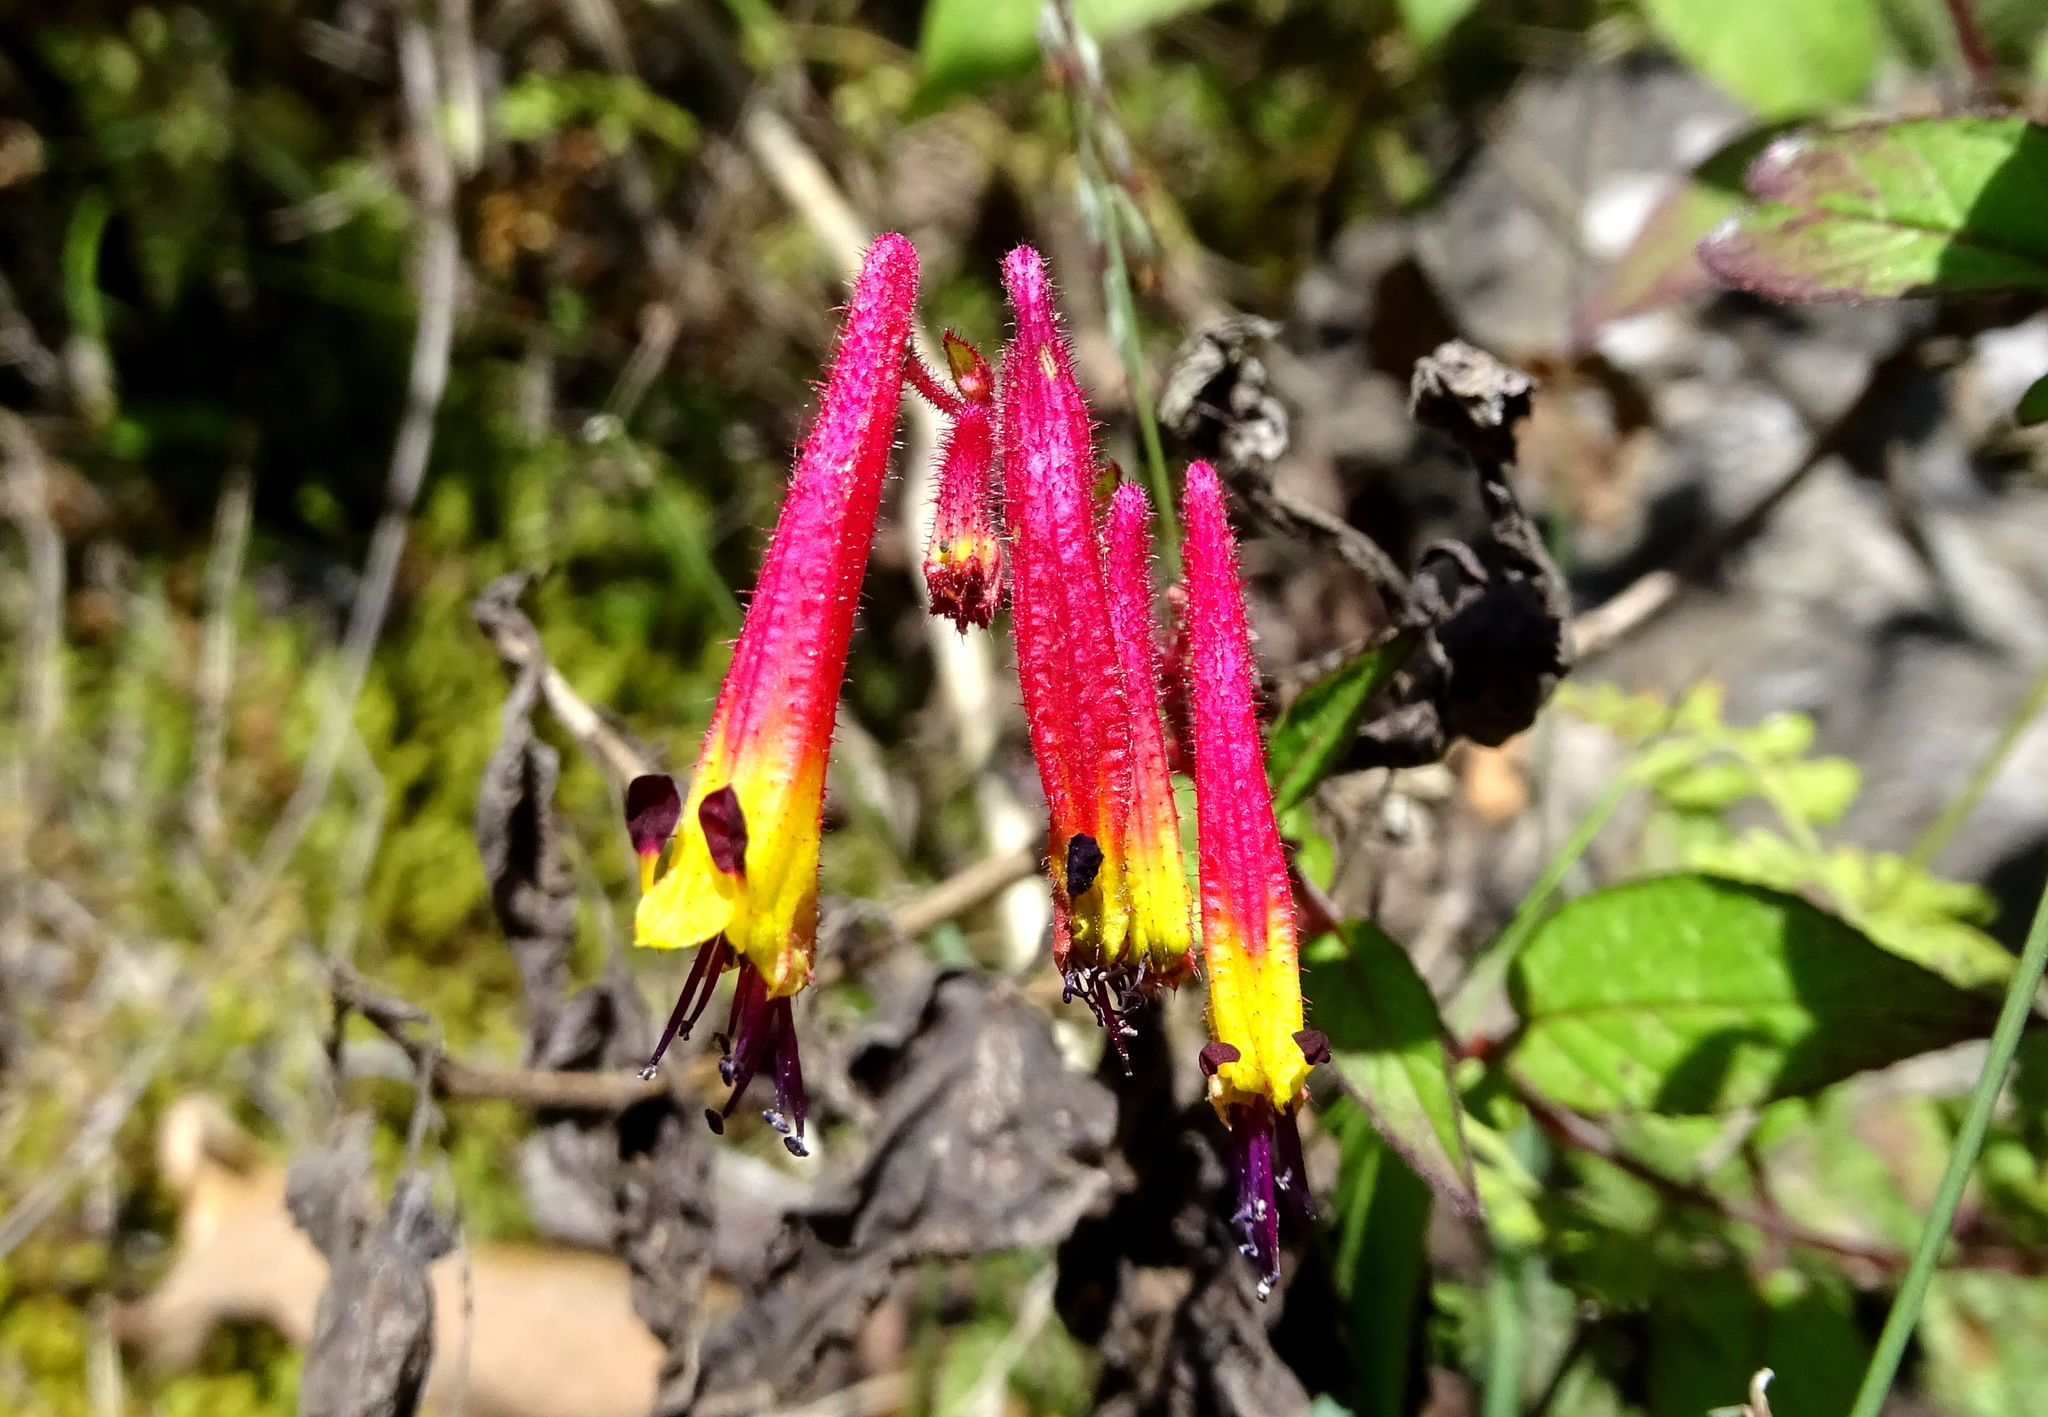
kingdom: Plantae
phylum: Tracheophyta
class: Magnoliopsida
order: Myrtales
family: Lythraceae
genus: Cuphea
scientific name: Cuphea cyanea
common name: Black-eyed cuphea
